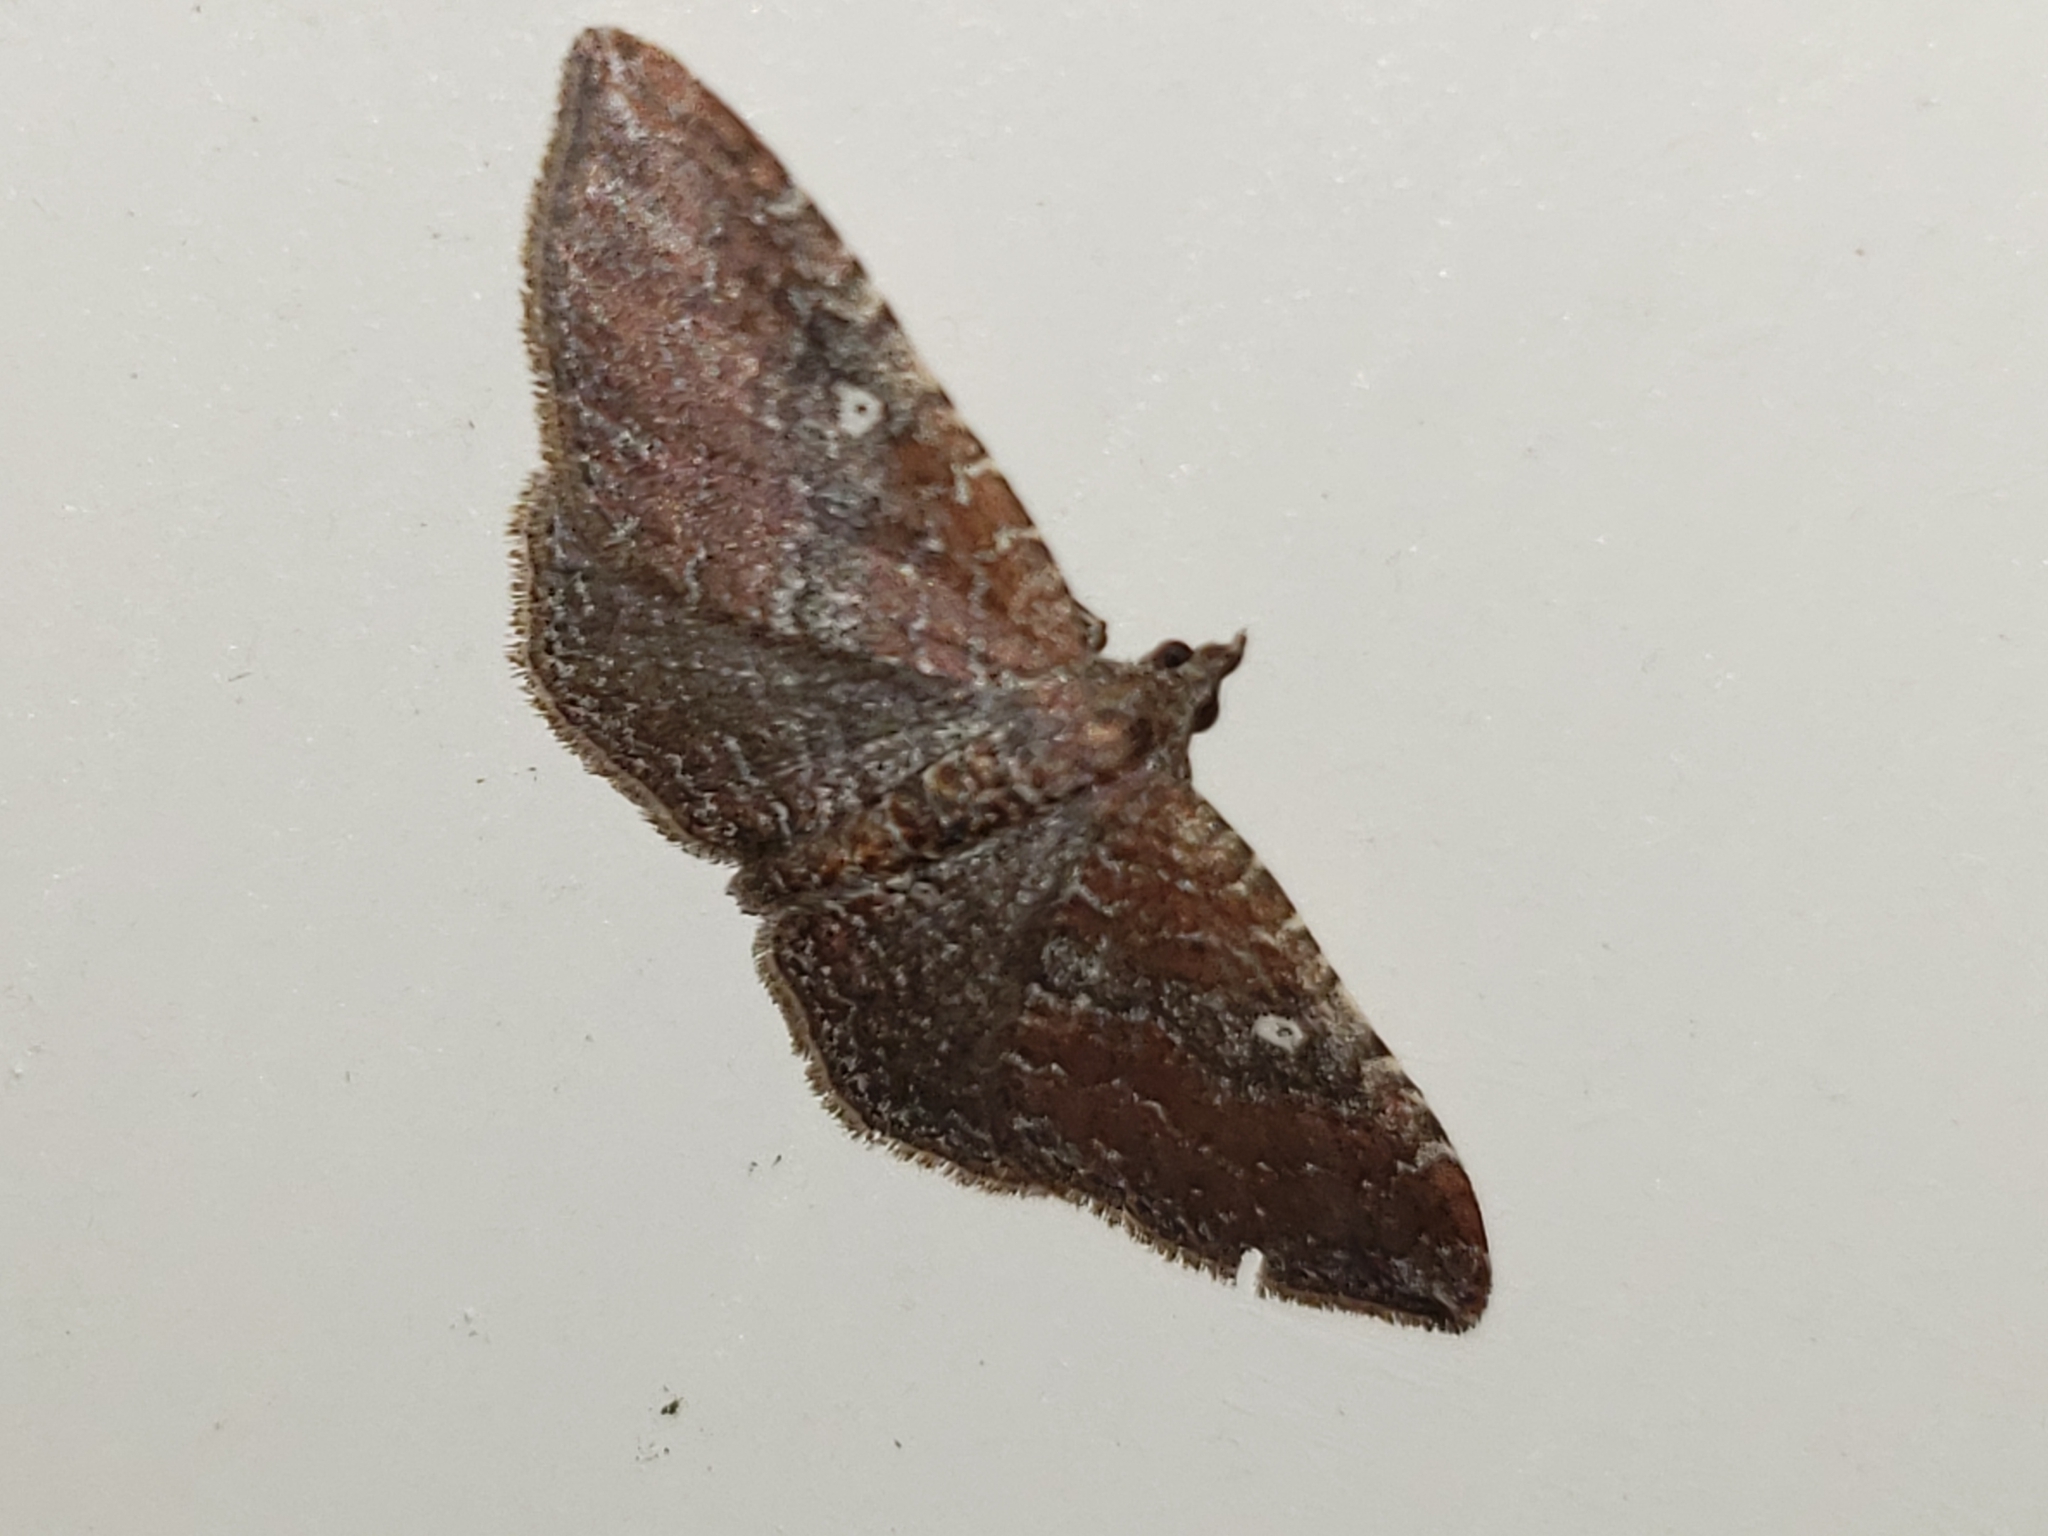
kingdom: Animalia
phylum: Arthropoda
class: Insecta
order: Lepidoptera
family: Geometridae
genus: Orthonama
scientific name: Orthonama obstipata
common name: The gem
